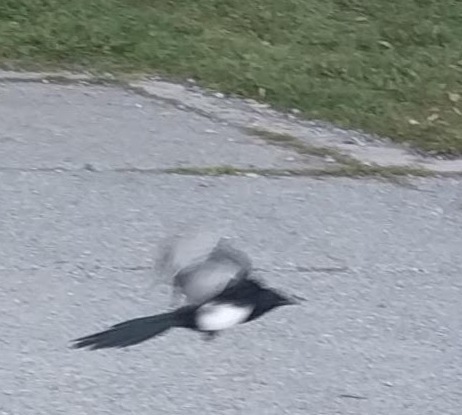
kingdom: Animalia
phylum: Chordata
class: Aves
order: Passeriformes
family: Corvidae
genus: Pica
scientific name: Pica hudsonia
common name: Black-billed magpie
